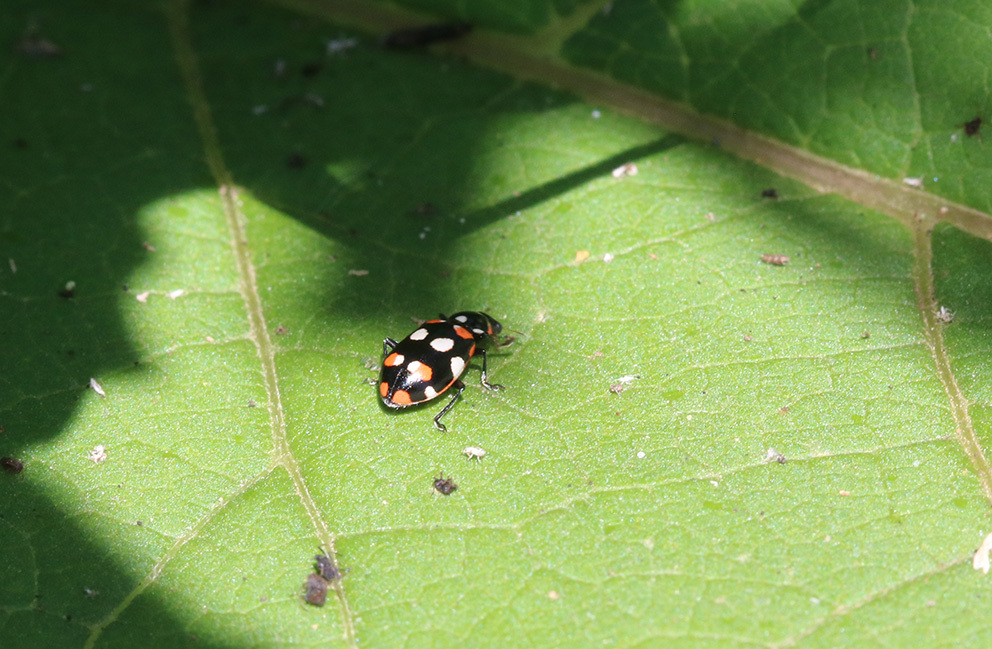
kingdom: Animalia
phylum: Arthropoda
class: Insecta
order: Coleoptera
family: Coccinellidae
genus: Eriopis
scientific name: Eriopis connexa
